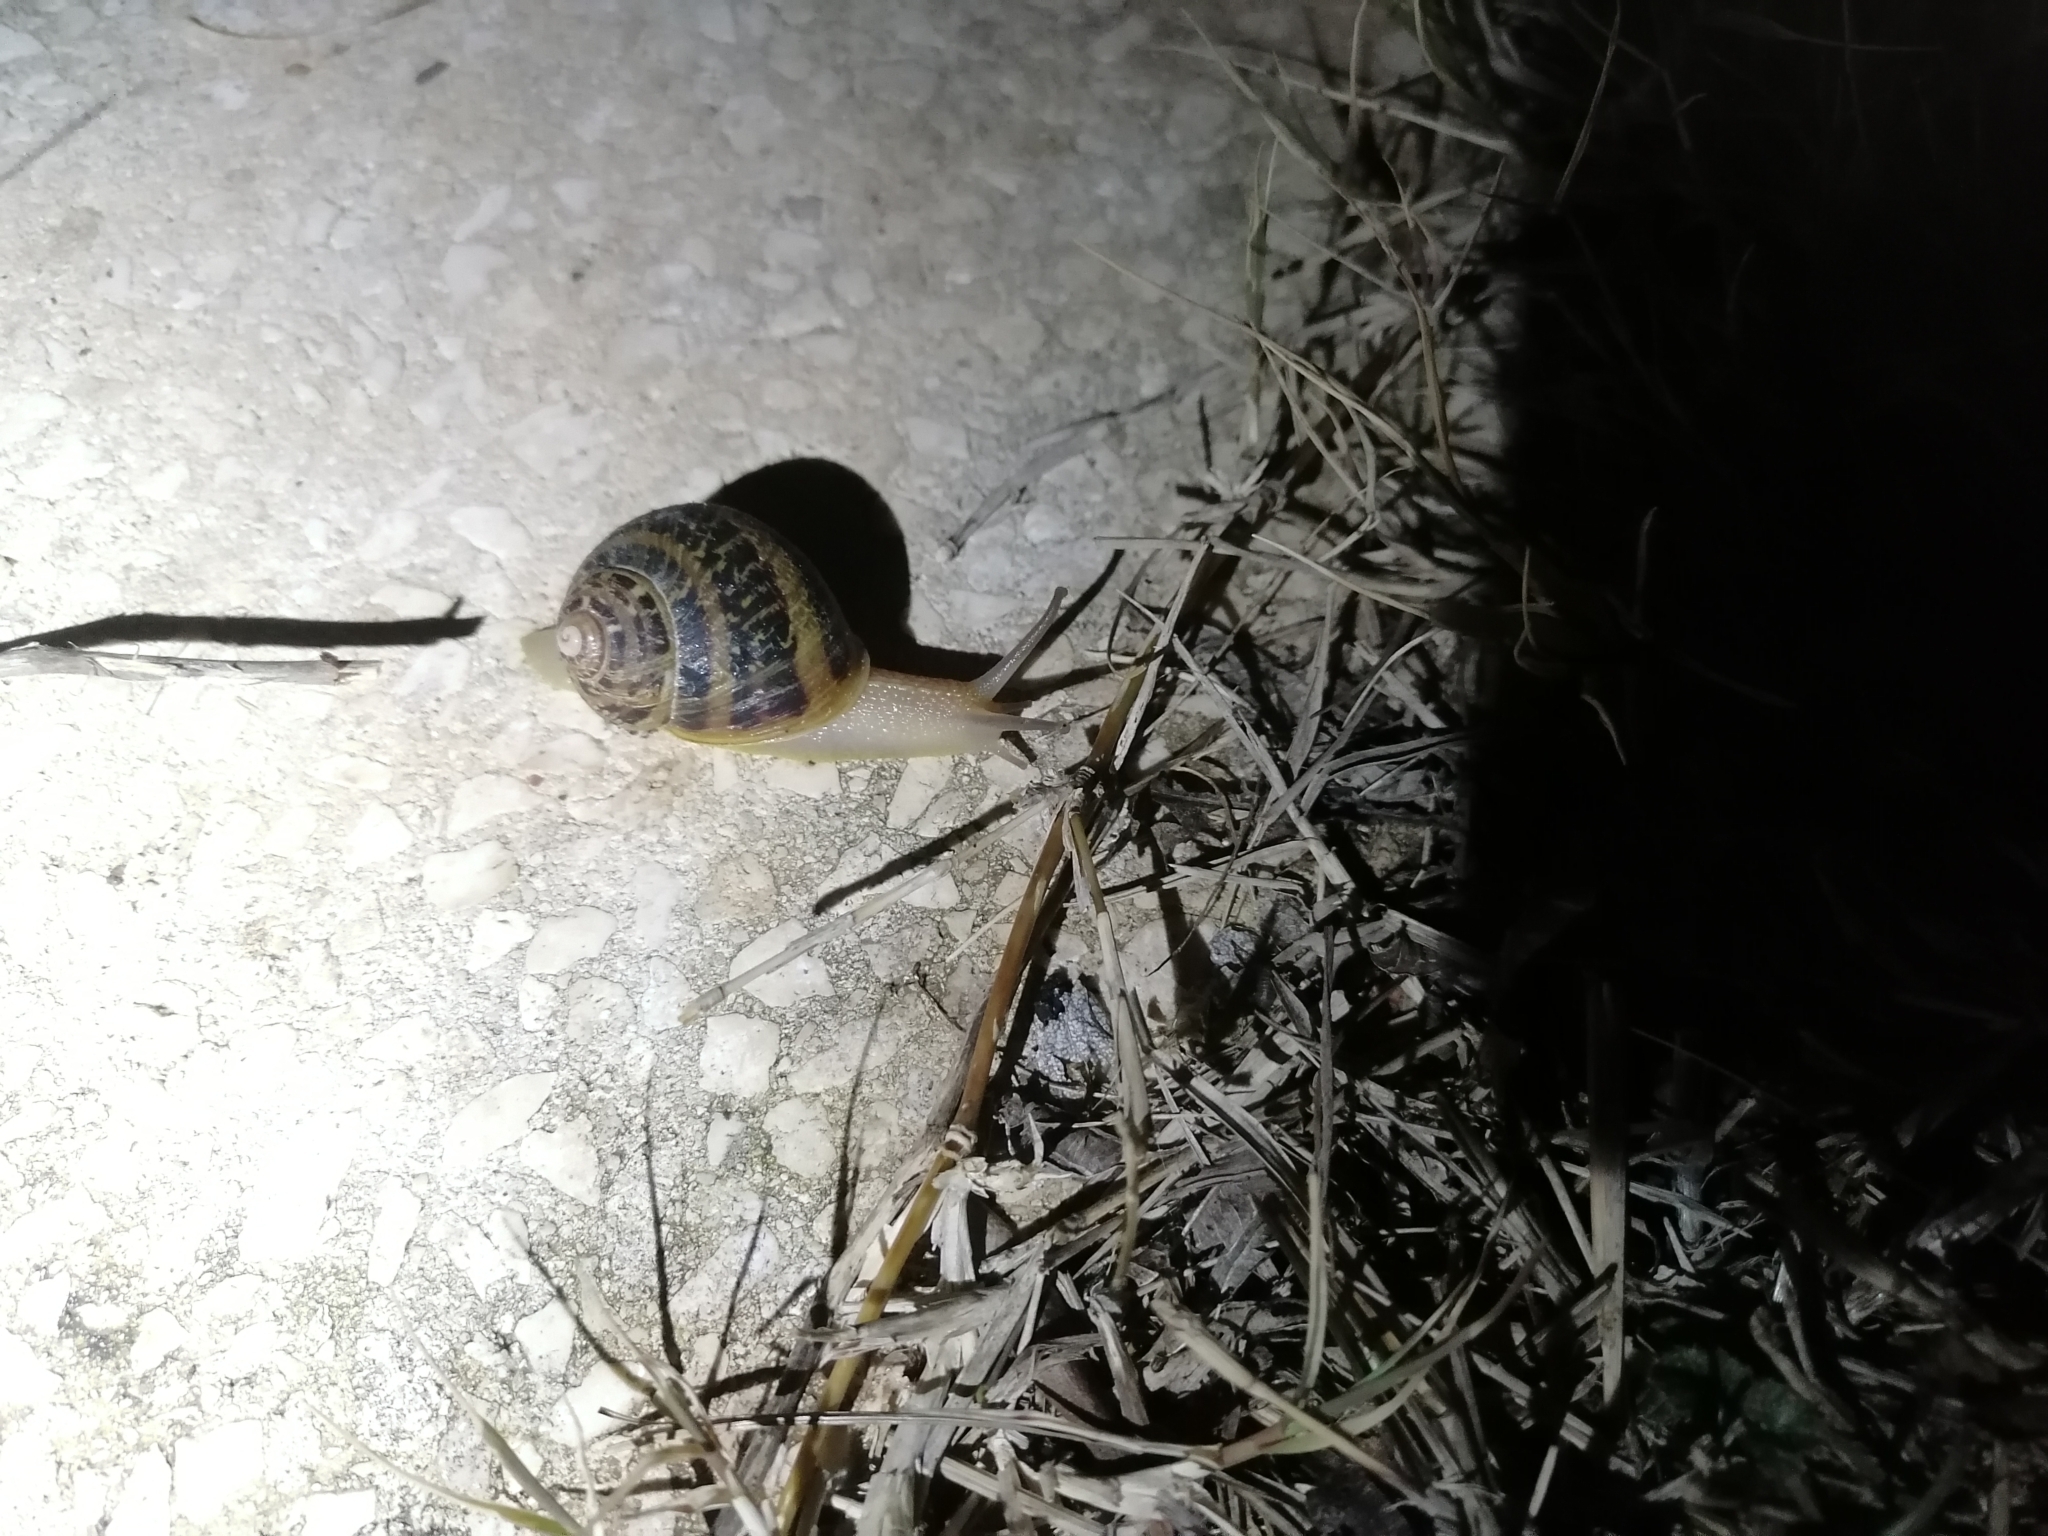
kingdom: Animalia
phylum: Mollusca
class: Gastropoda
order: Stylommatophora
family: Helicidae
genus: Cornu
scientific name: Cornu aspersum
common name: Brown garden snail
